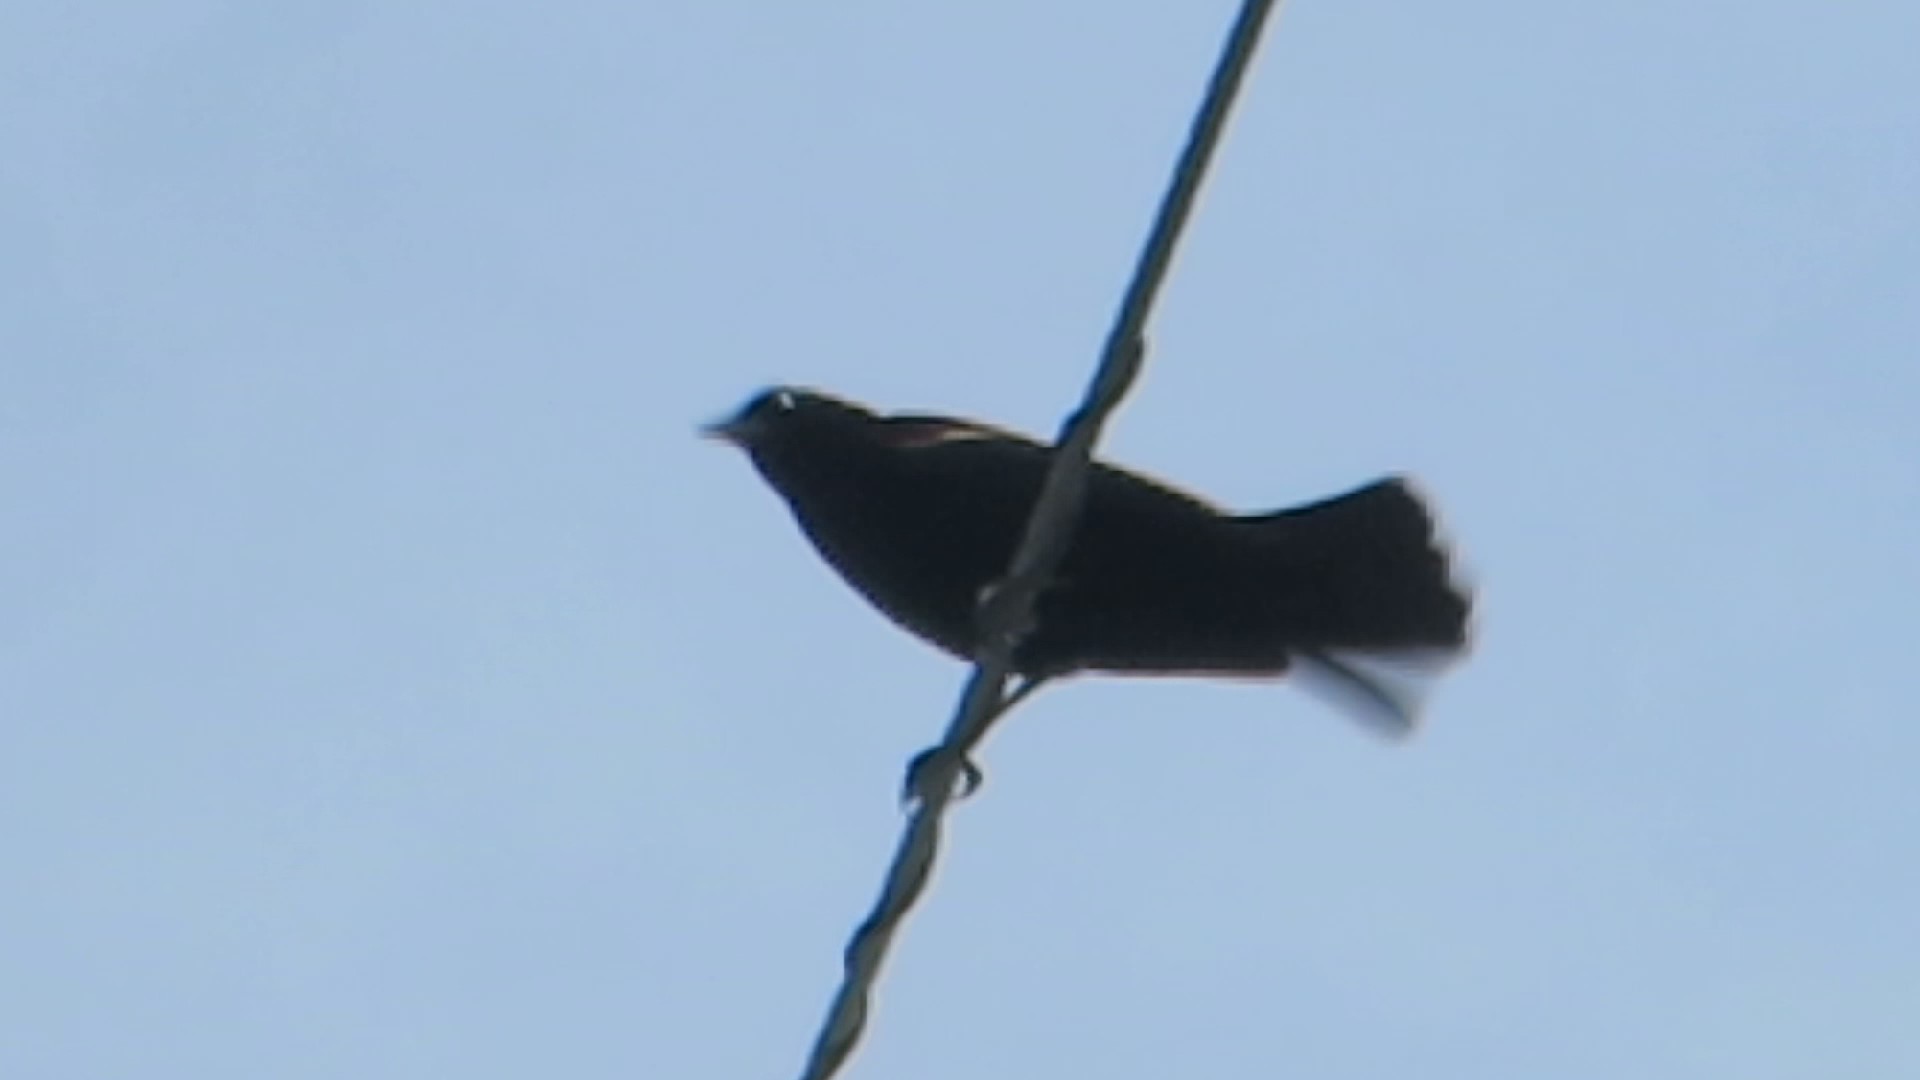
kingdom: Animalia
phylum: Chordata
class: Aves
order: Passeriformes
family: Icteridae
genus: Agelaius
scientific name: Agelaius phoeniceus
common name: Red-winged blackbird
